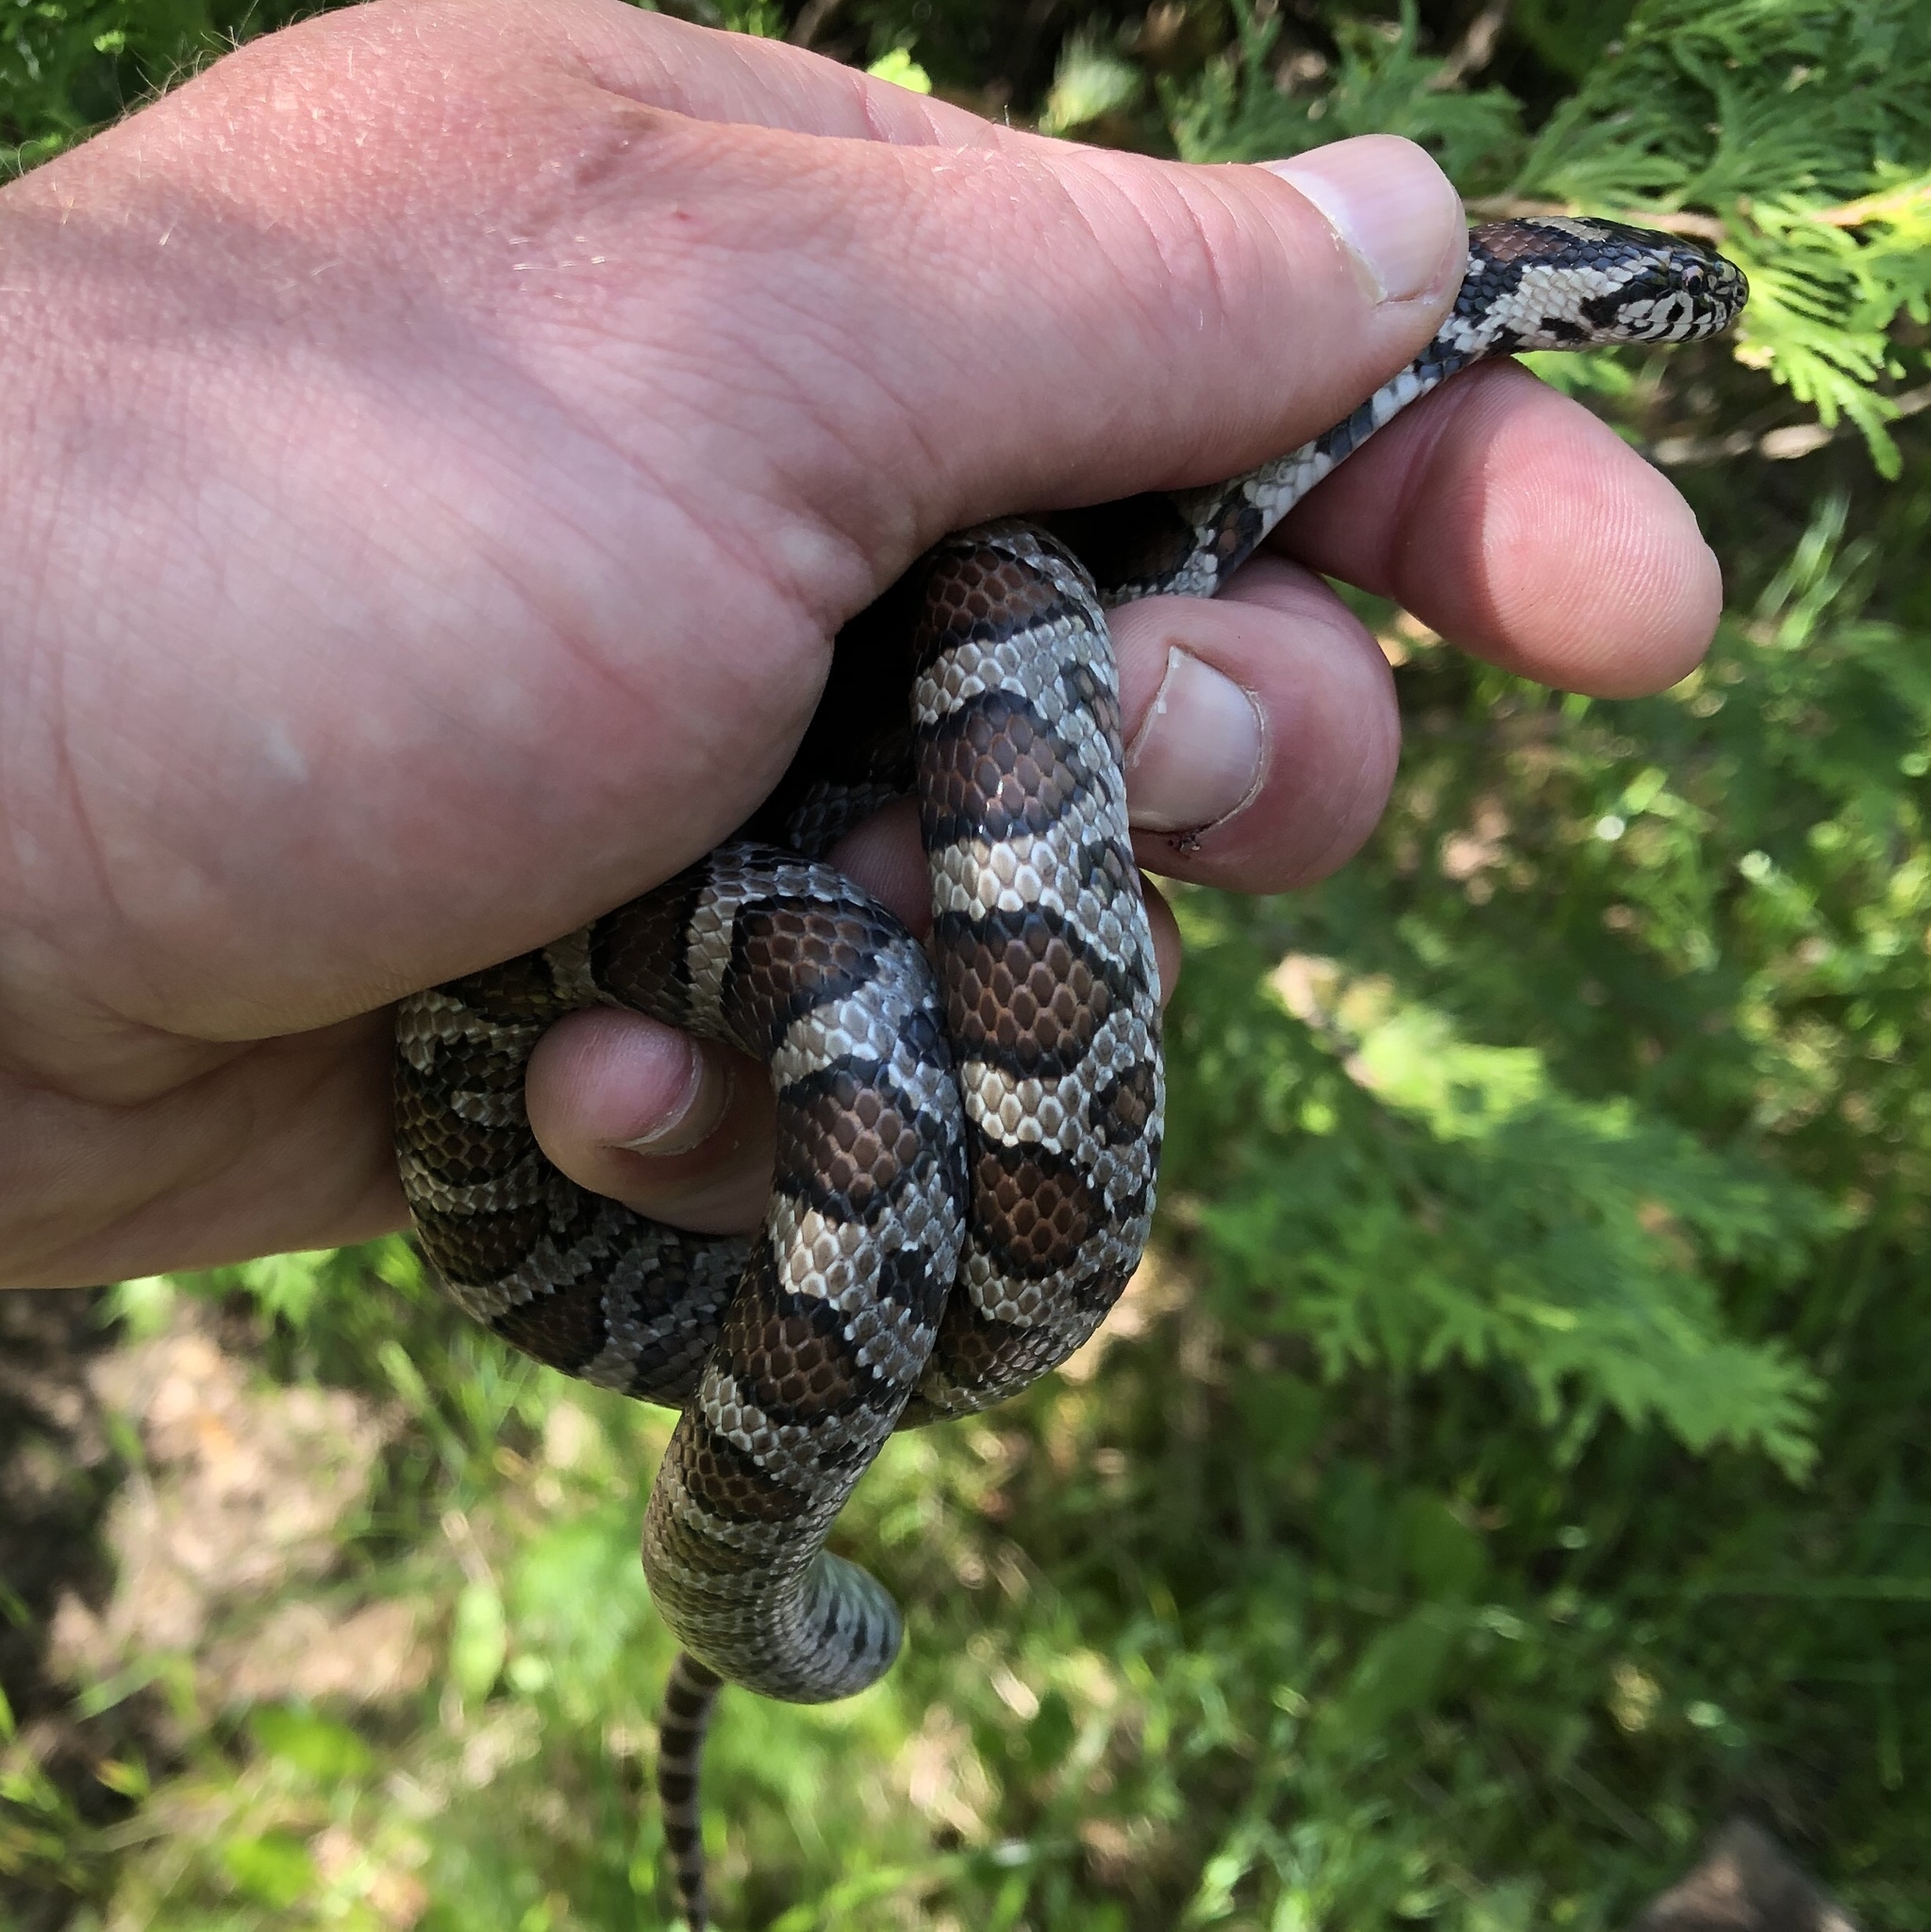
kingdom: Animalia
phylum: Chordata
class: Squamata
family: Colubridae
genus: Lampropeltis
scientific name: Lampropeltis triangulum
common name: Eastern milksnake
